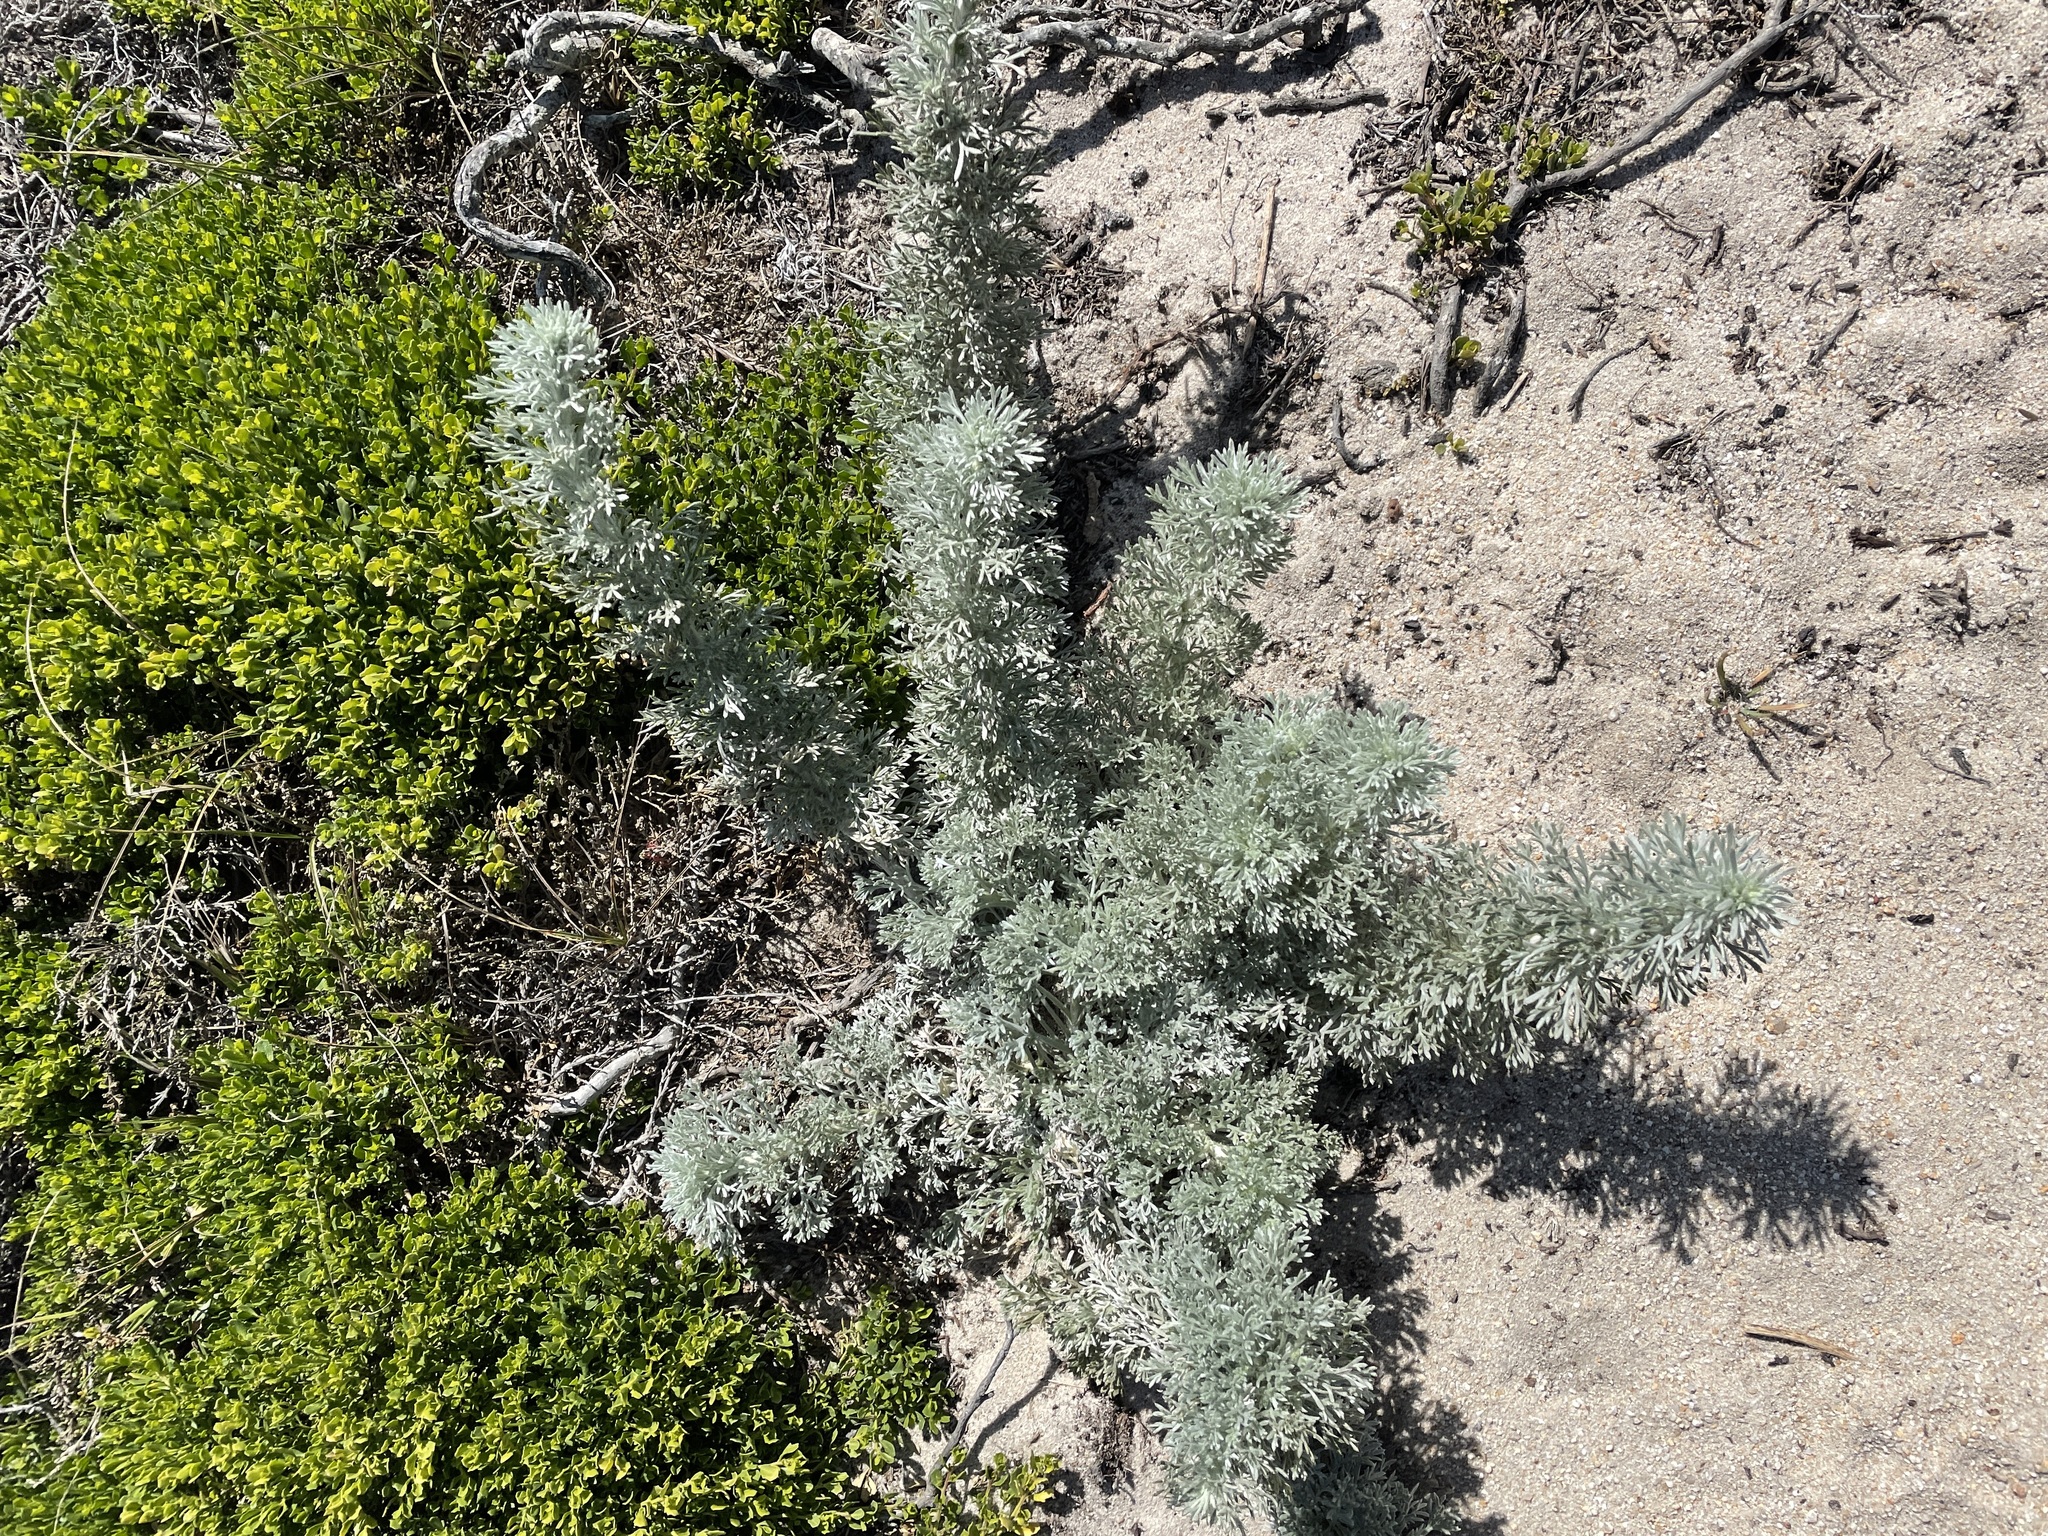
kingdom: Plantae
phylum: Tracheophyta
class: Magnoliopsida
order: Asterales
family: Asteraceae
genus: Artemisia
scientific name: Artemisia pycnocephala
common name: Coastal sagewort
